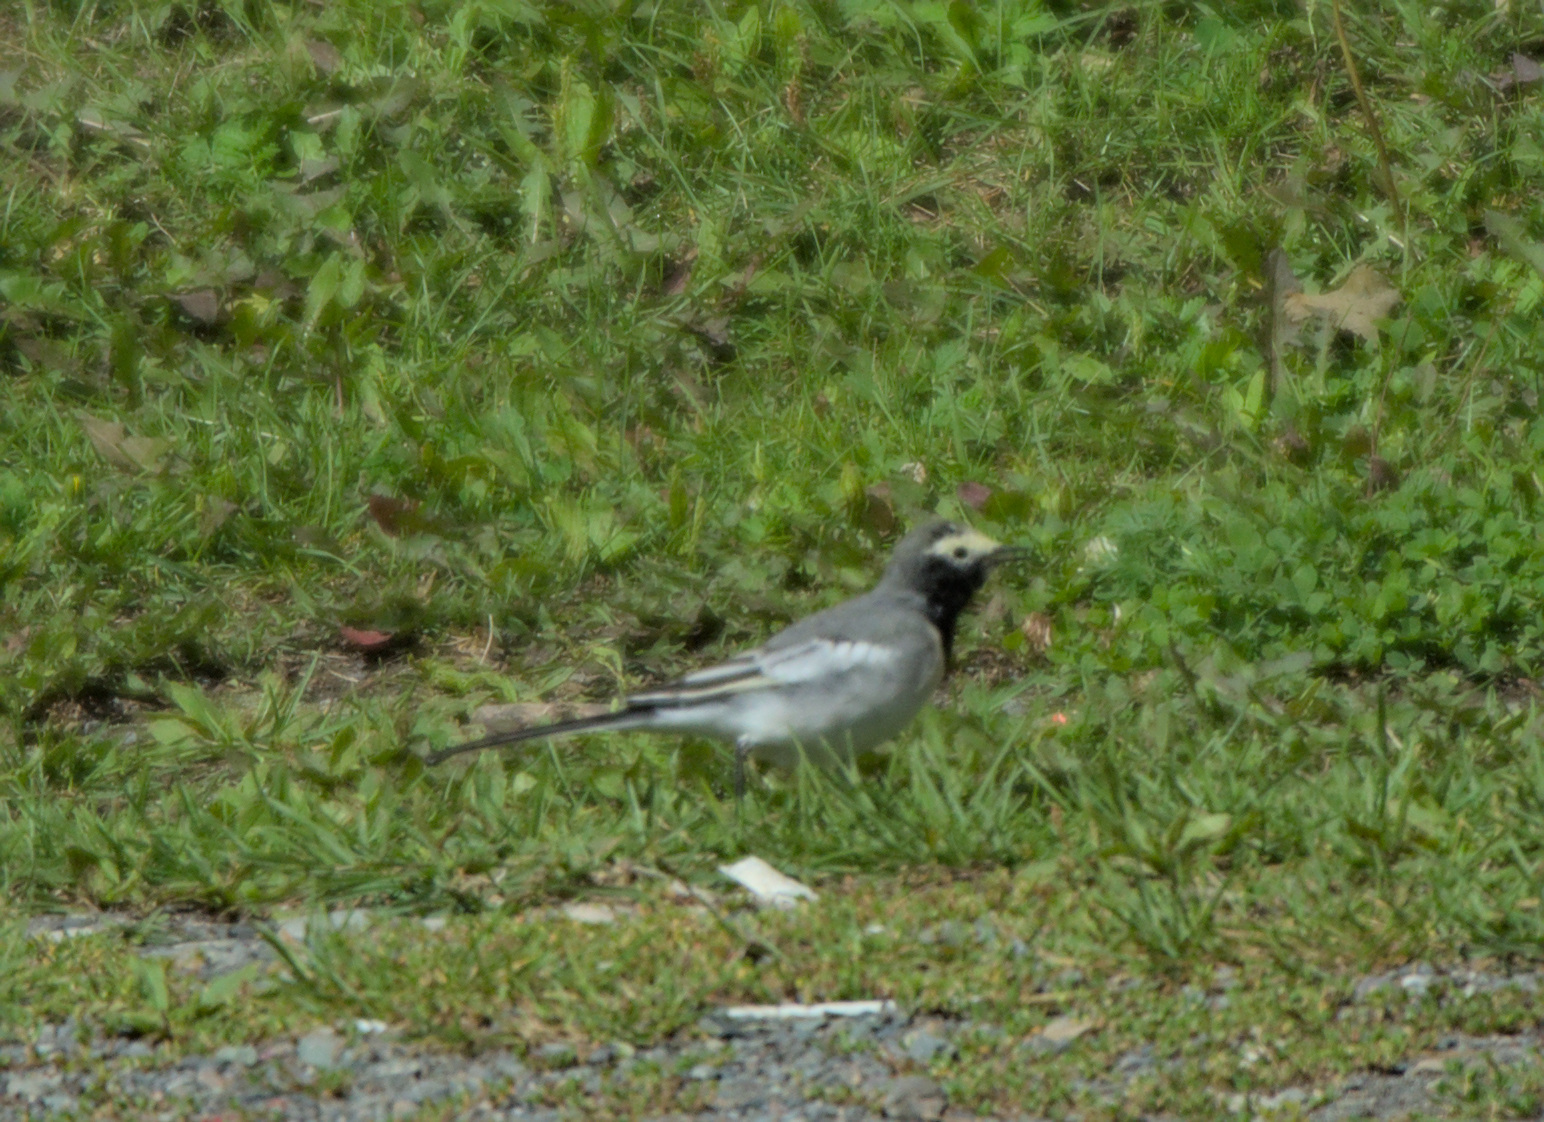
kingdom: Animalia
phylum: Chordata
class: Aves
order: Passeriformes
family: Motacillidae
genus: Motacilla
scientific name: Motacilla alba
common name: White wagtail
